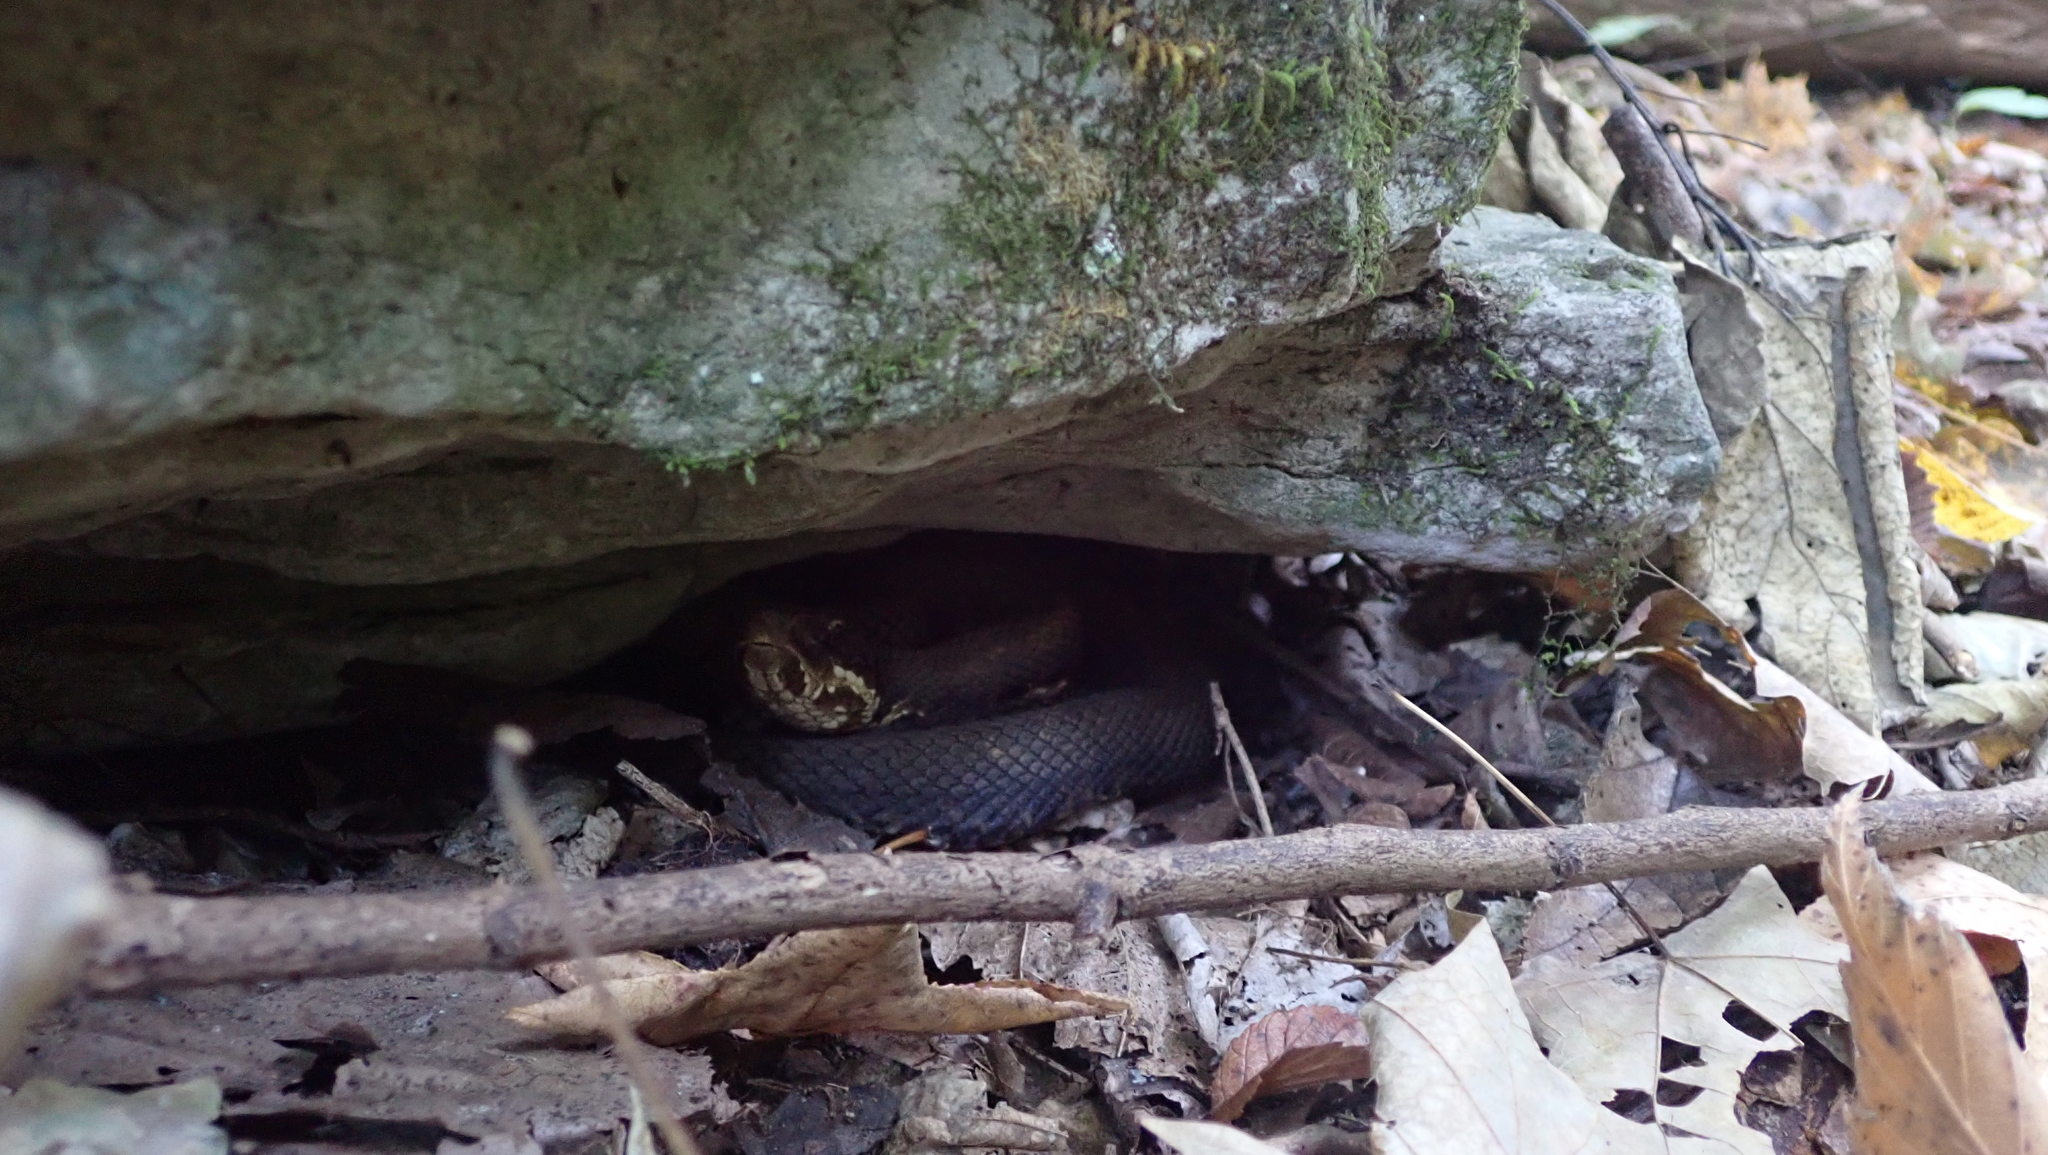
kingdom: Animalia
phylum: Chordata
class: Squamata
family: Viperidae
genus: Agkistrodon
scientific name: Agkistrodon piscivorus
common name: Cottonmouth
